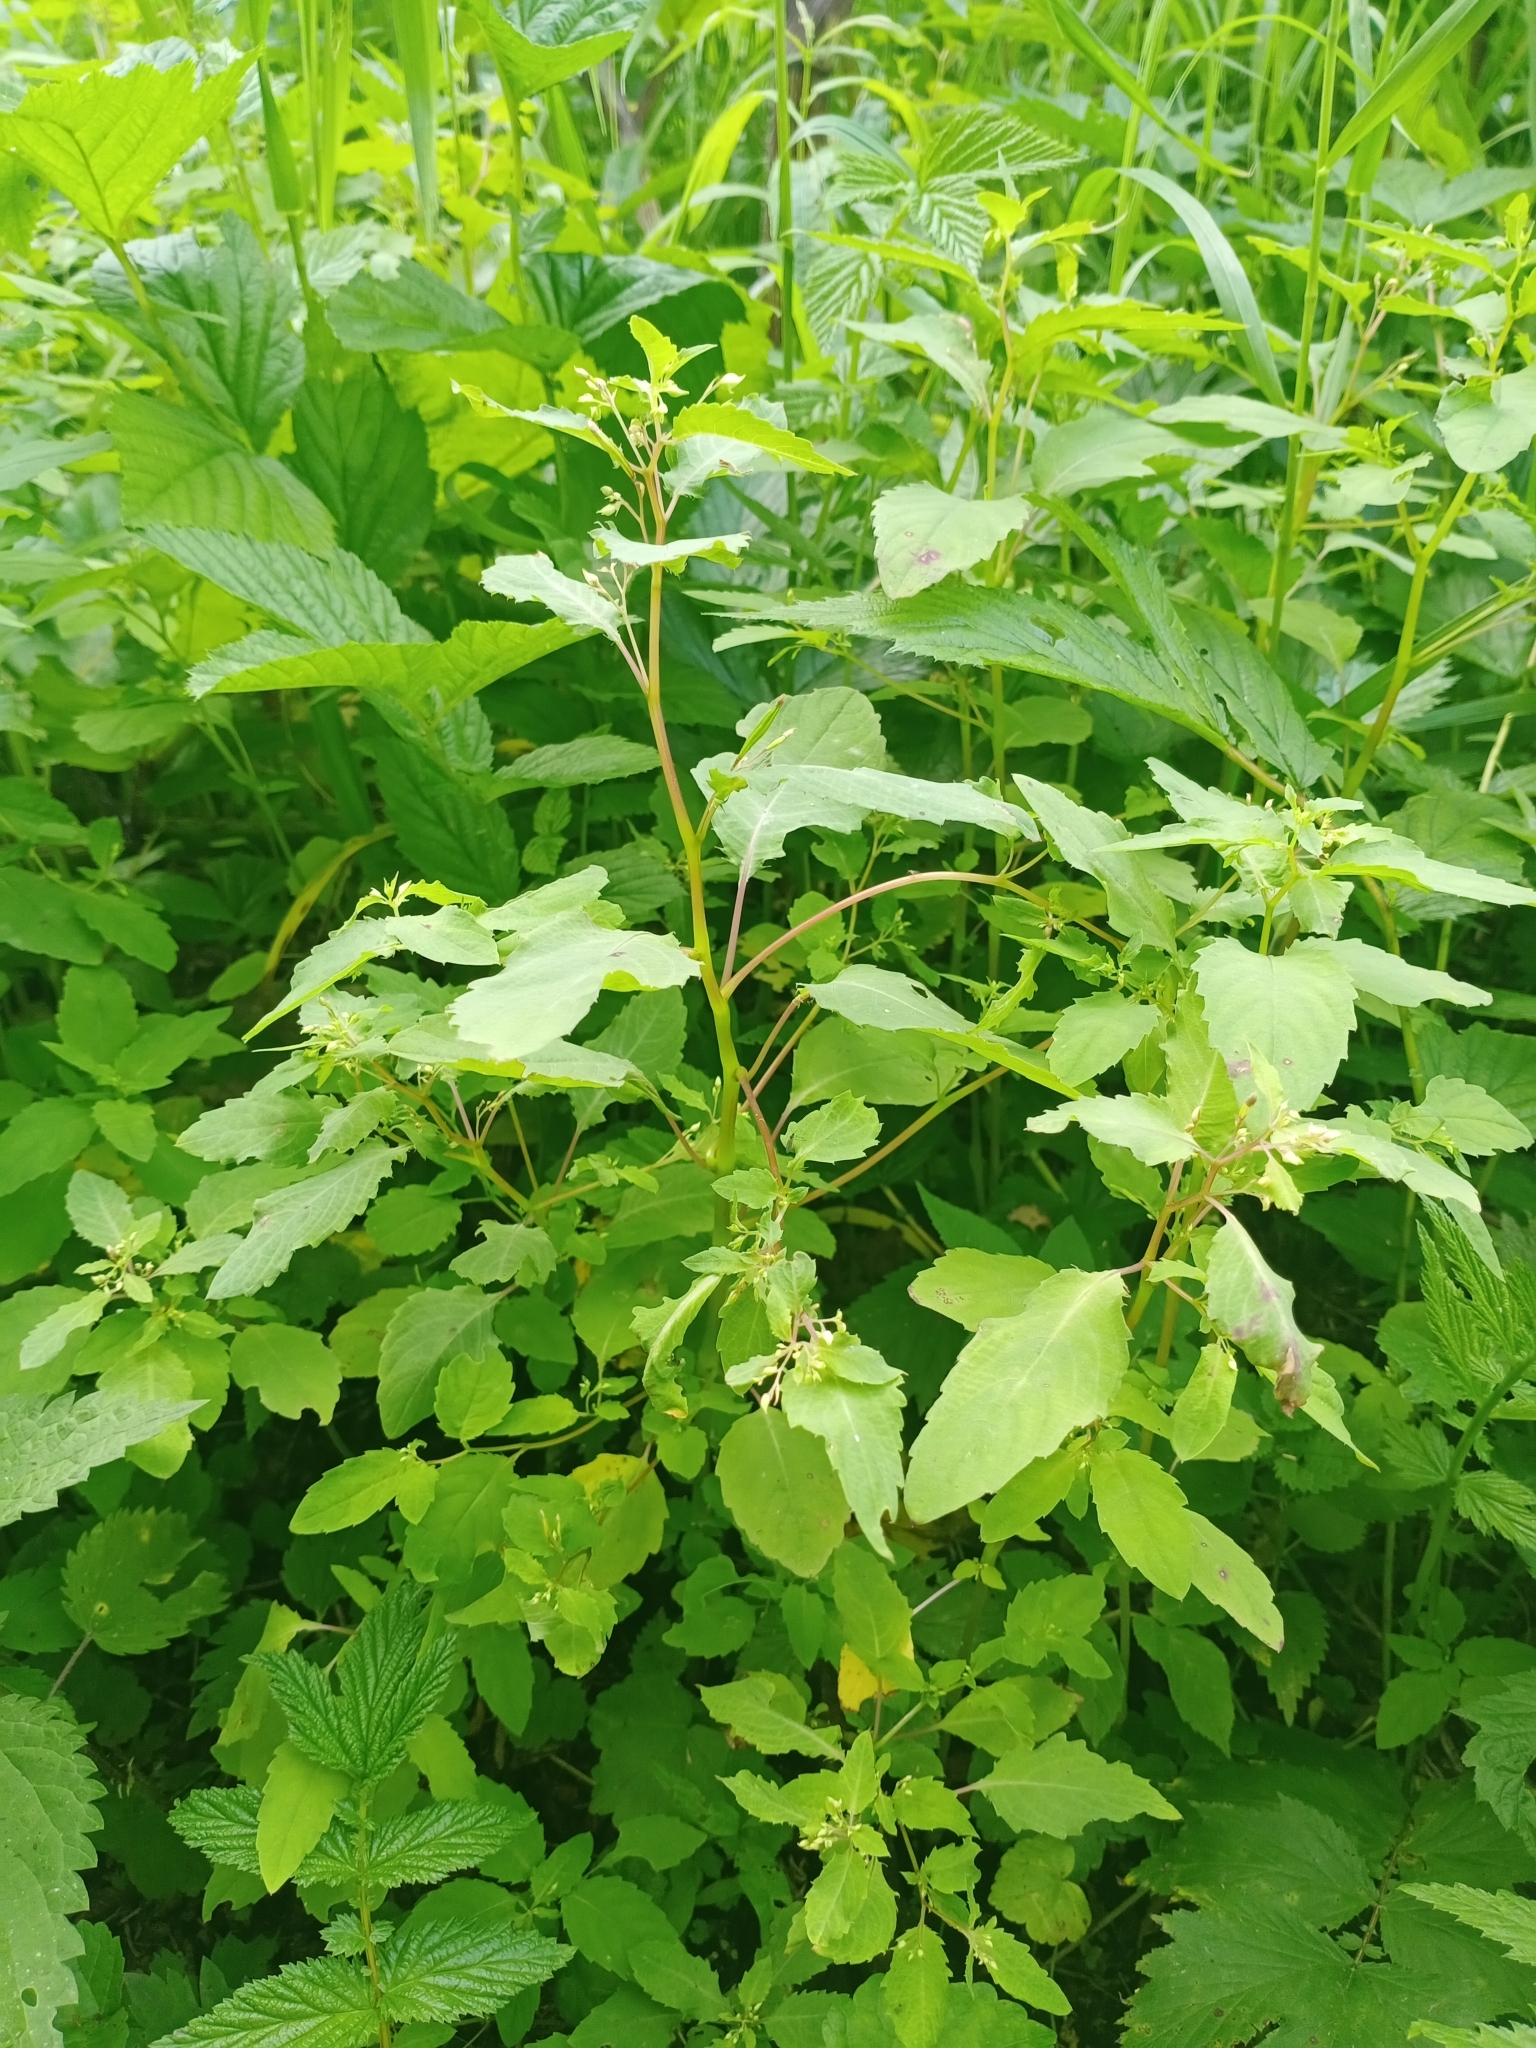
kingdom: Plantae
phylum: Tracheophyta
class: Magnoliopsida
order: Ericales
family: Balsaminaceae
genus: Impatiens
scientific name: Impatiens noli-tangere
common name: Touch-me-not balsam
